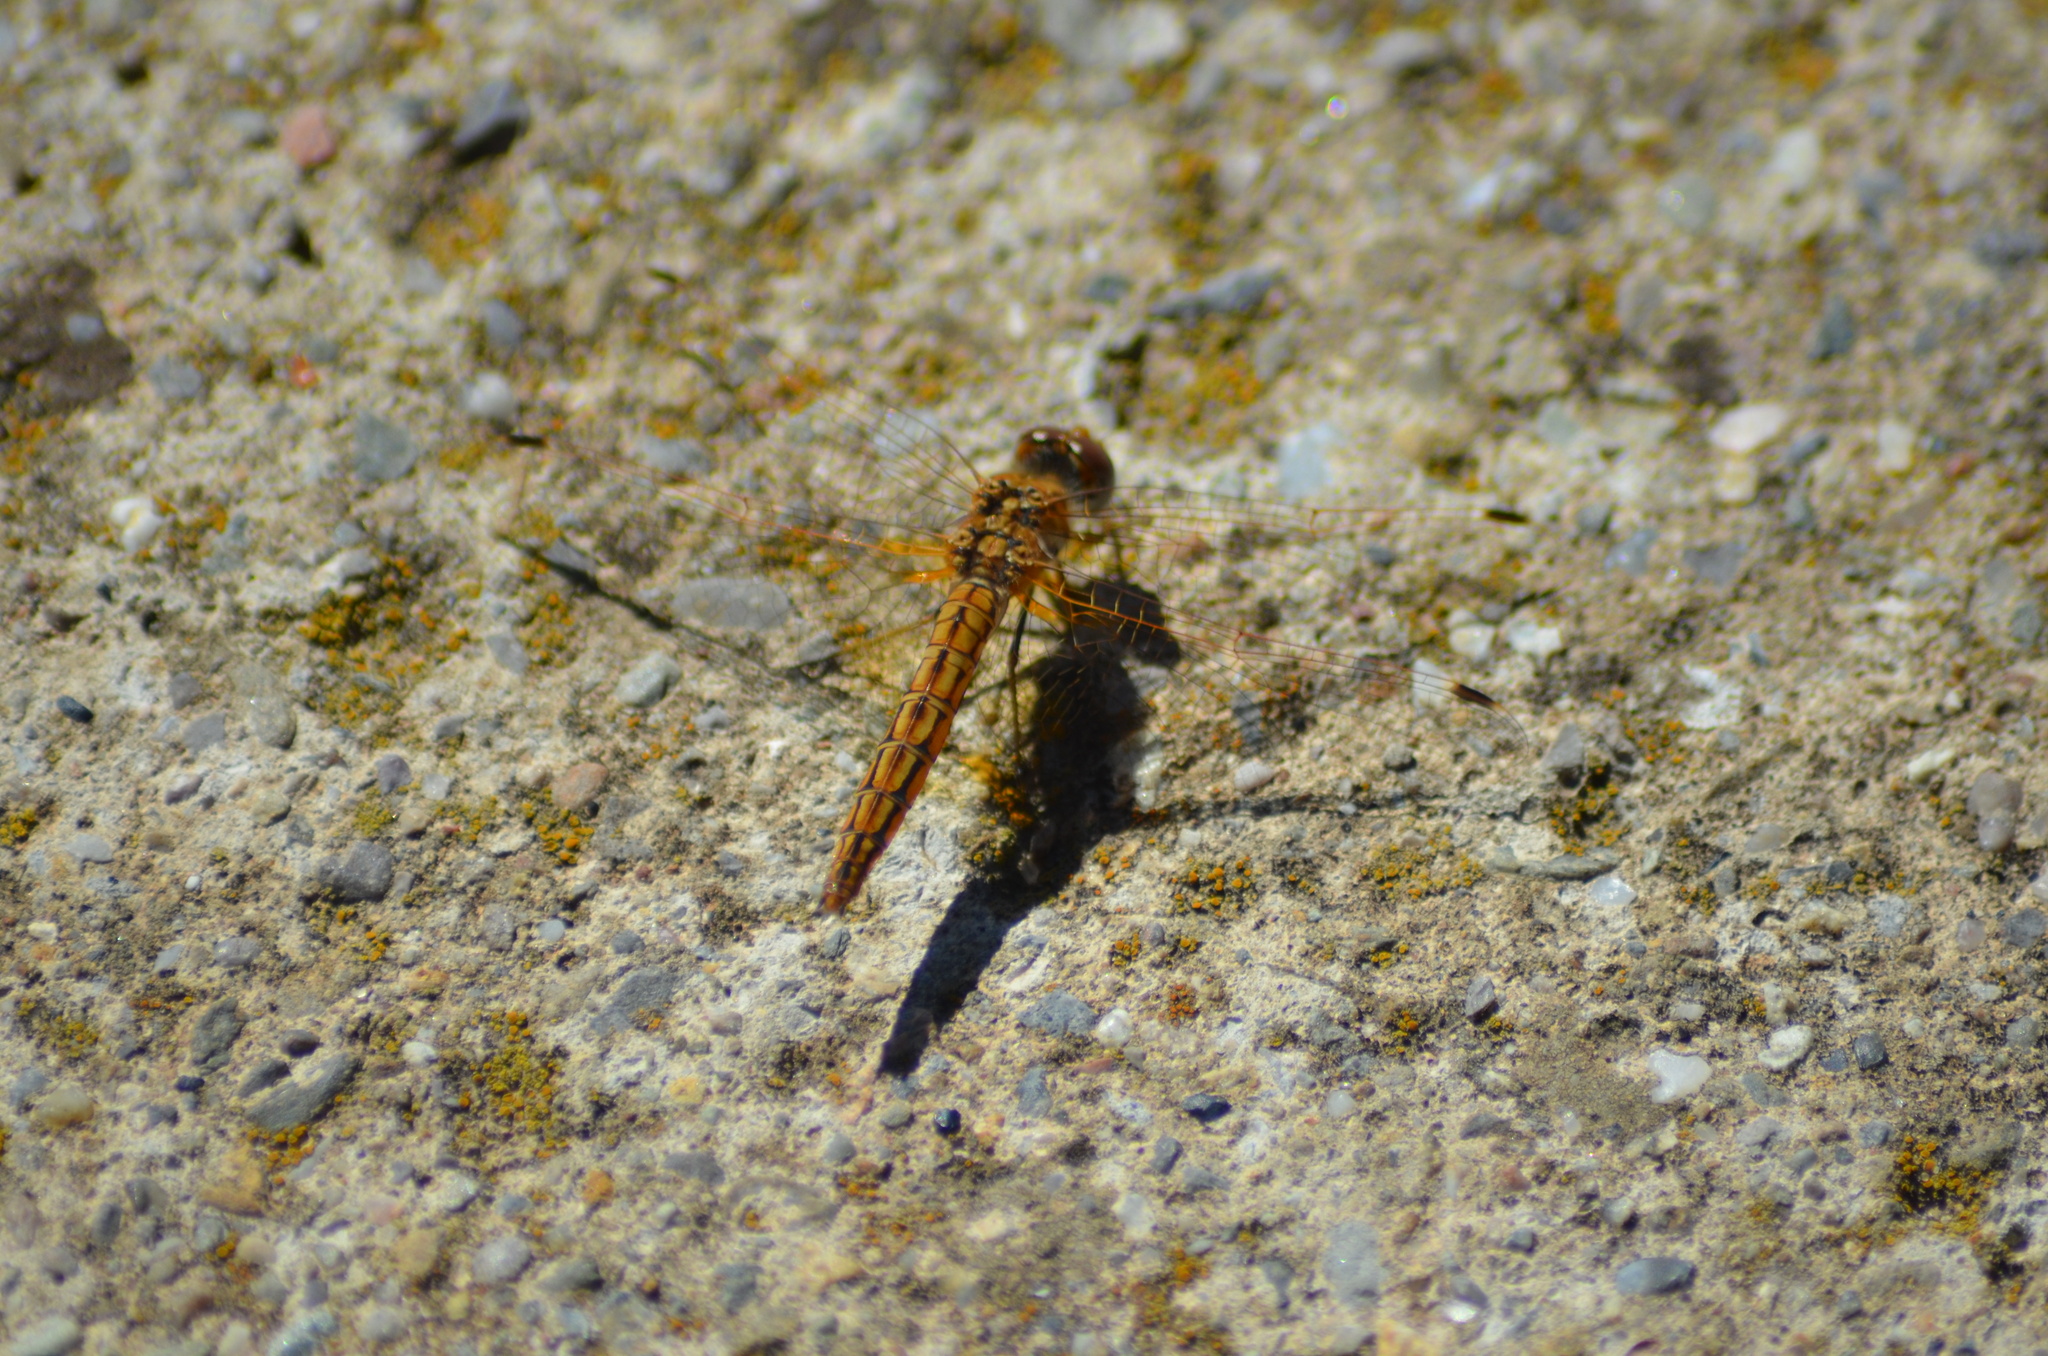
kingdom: Animalia
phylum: Arthropoda
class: Insecta
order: Odonata
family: Libellulidae
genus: Trithemis
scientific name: Trithemis kirbyi
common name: Kirby's dropwing
